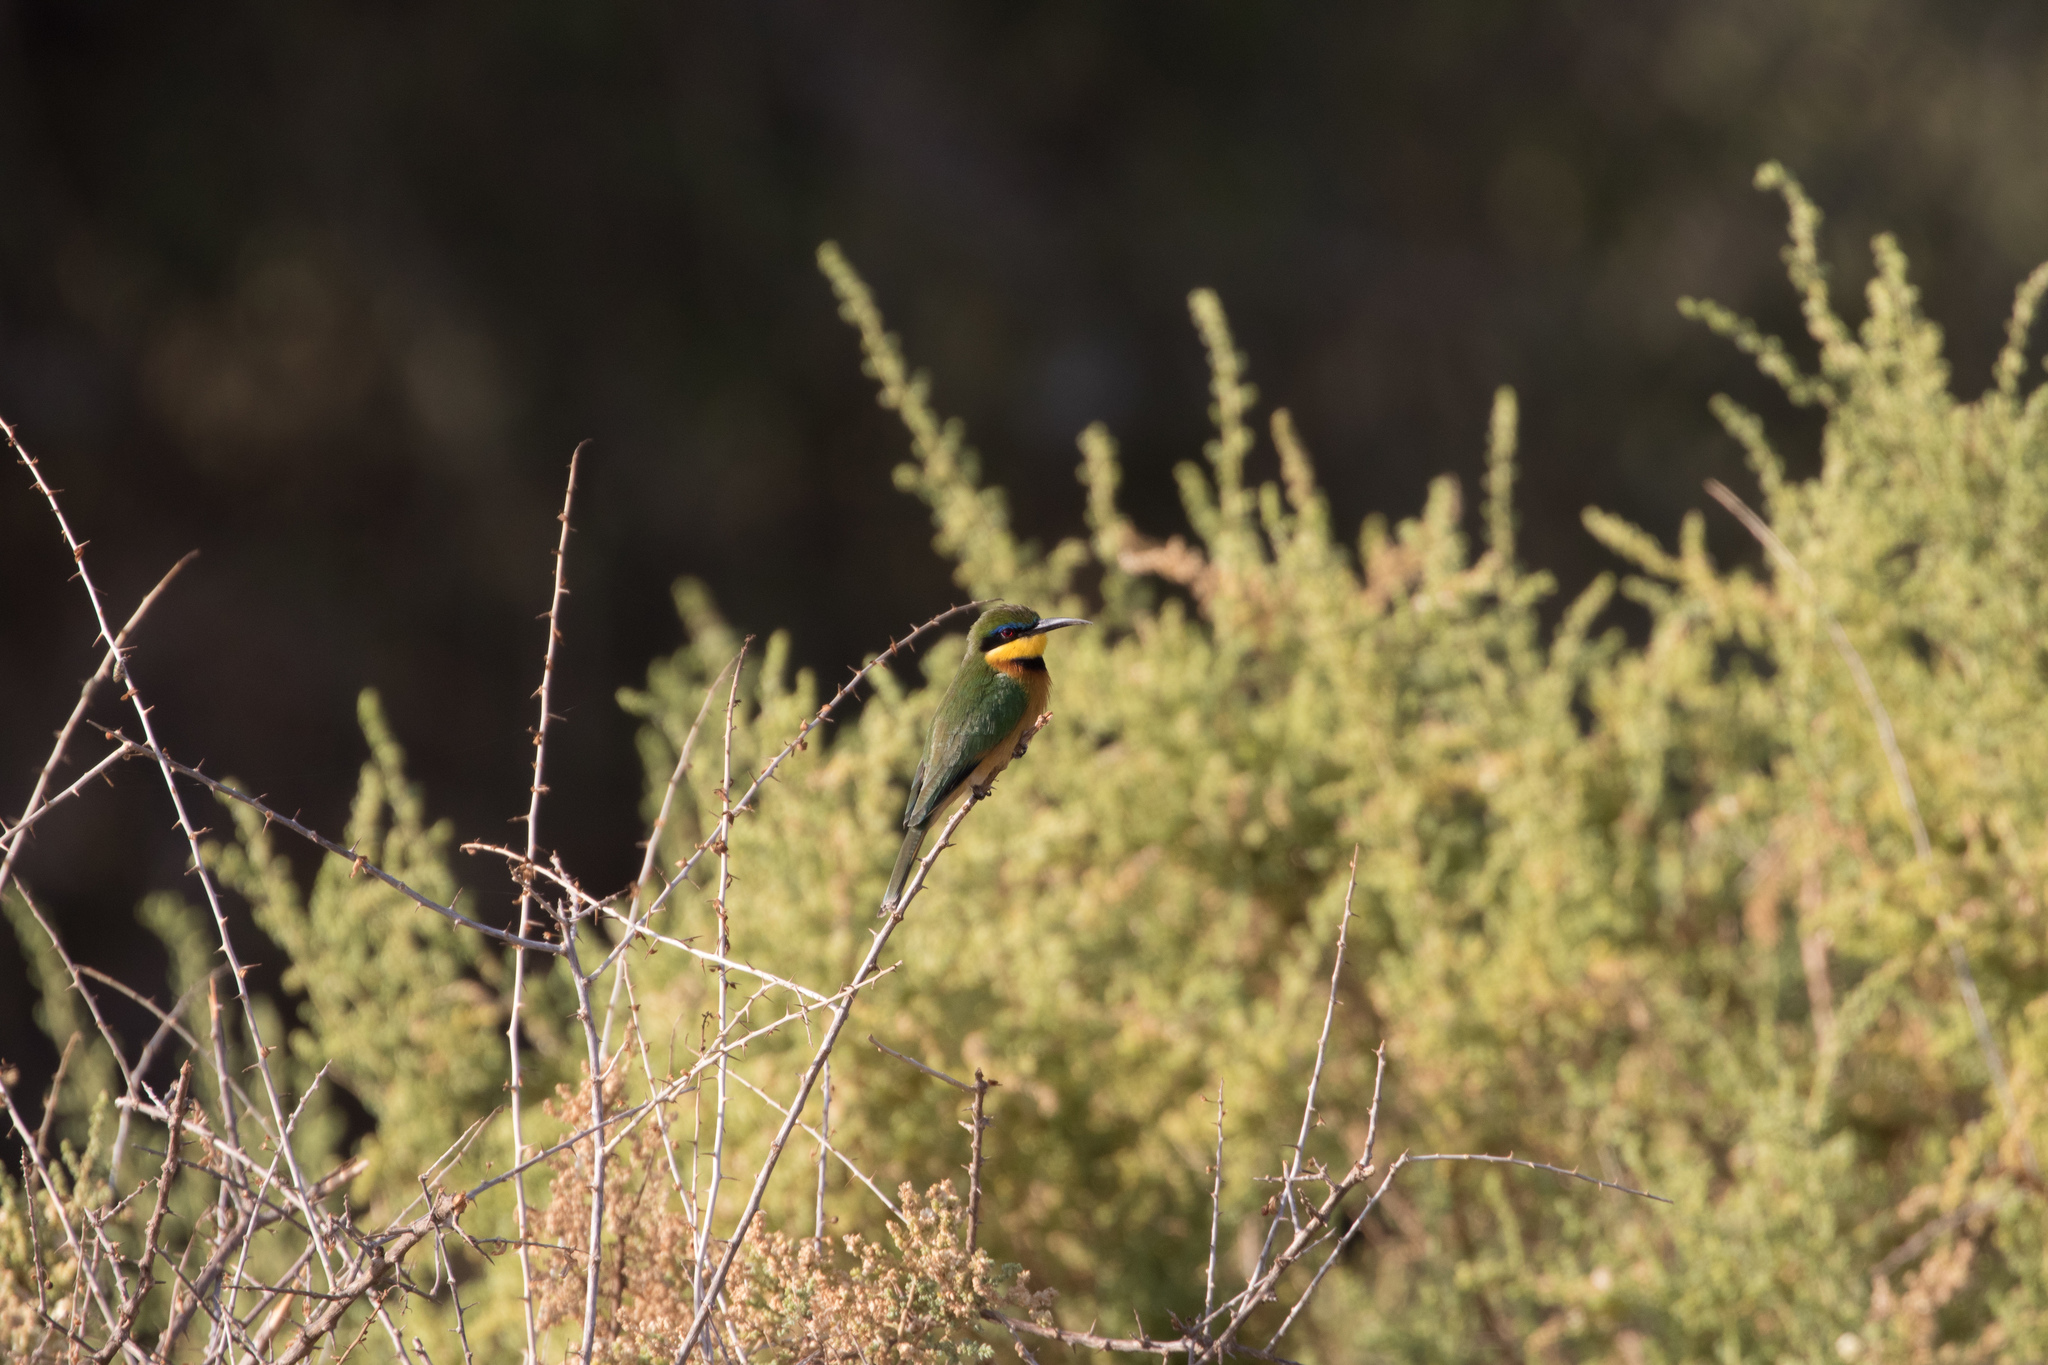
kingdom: Animalia
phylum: Chordata
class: Aves
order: Coraciiformes
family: Meropidae
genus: Merops
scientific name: Merops pusillus
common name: Little bee-eater
